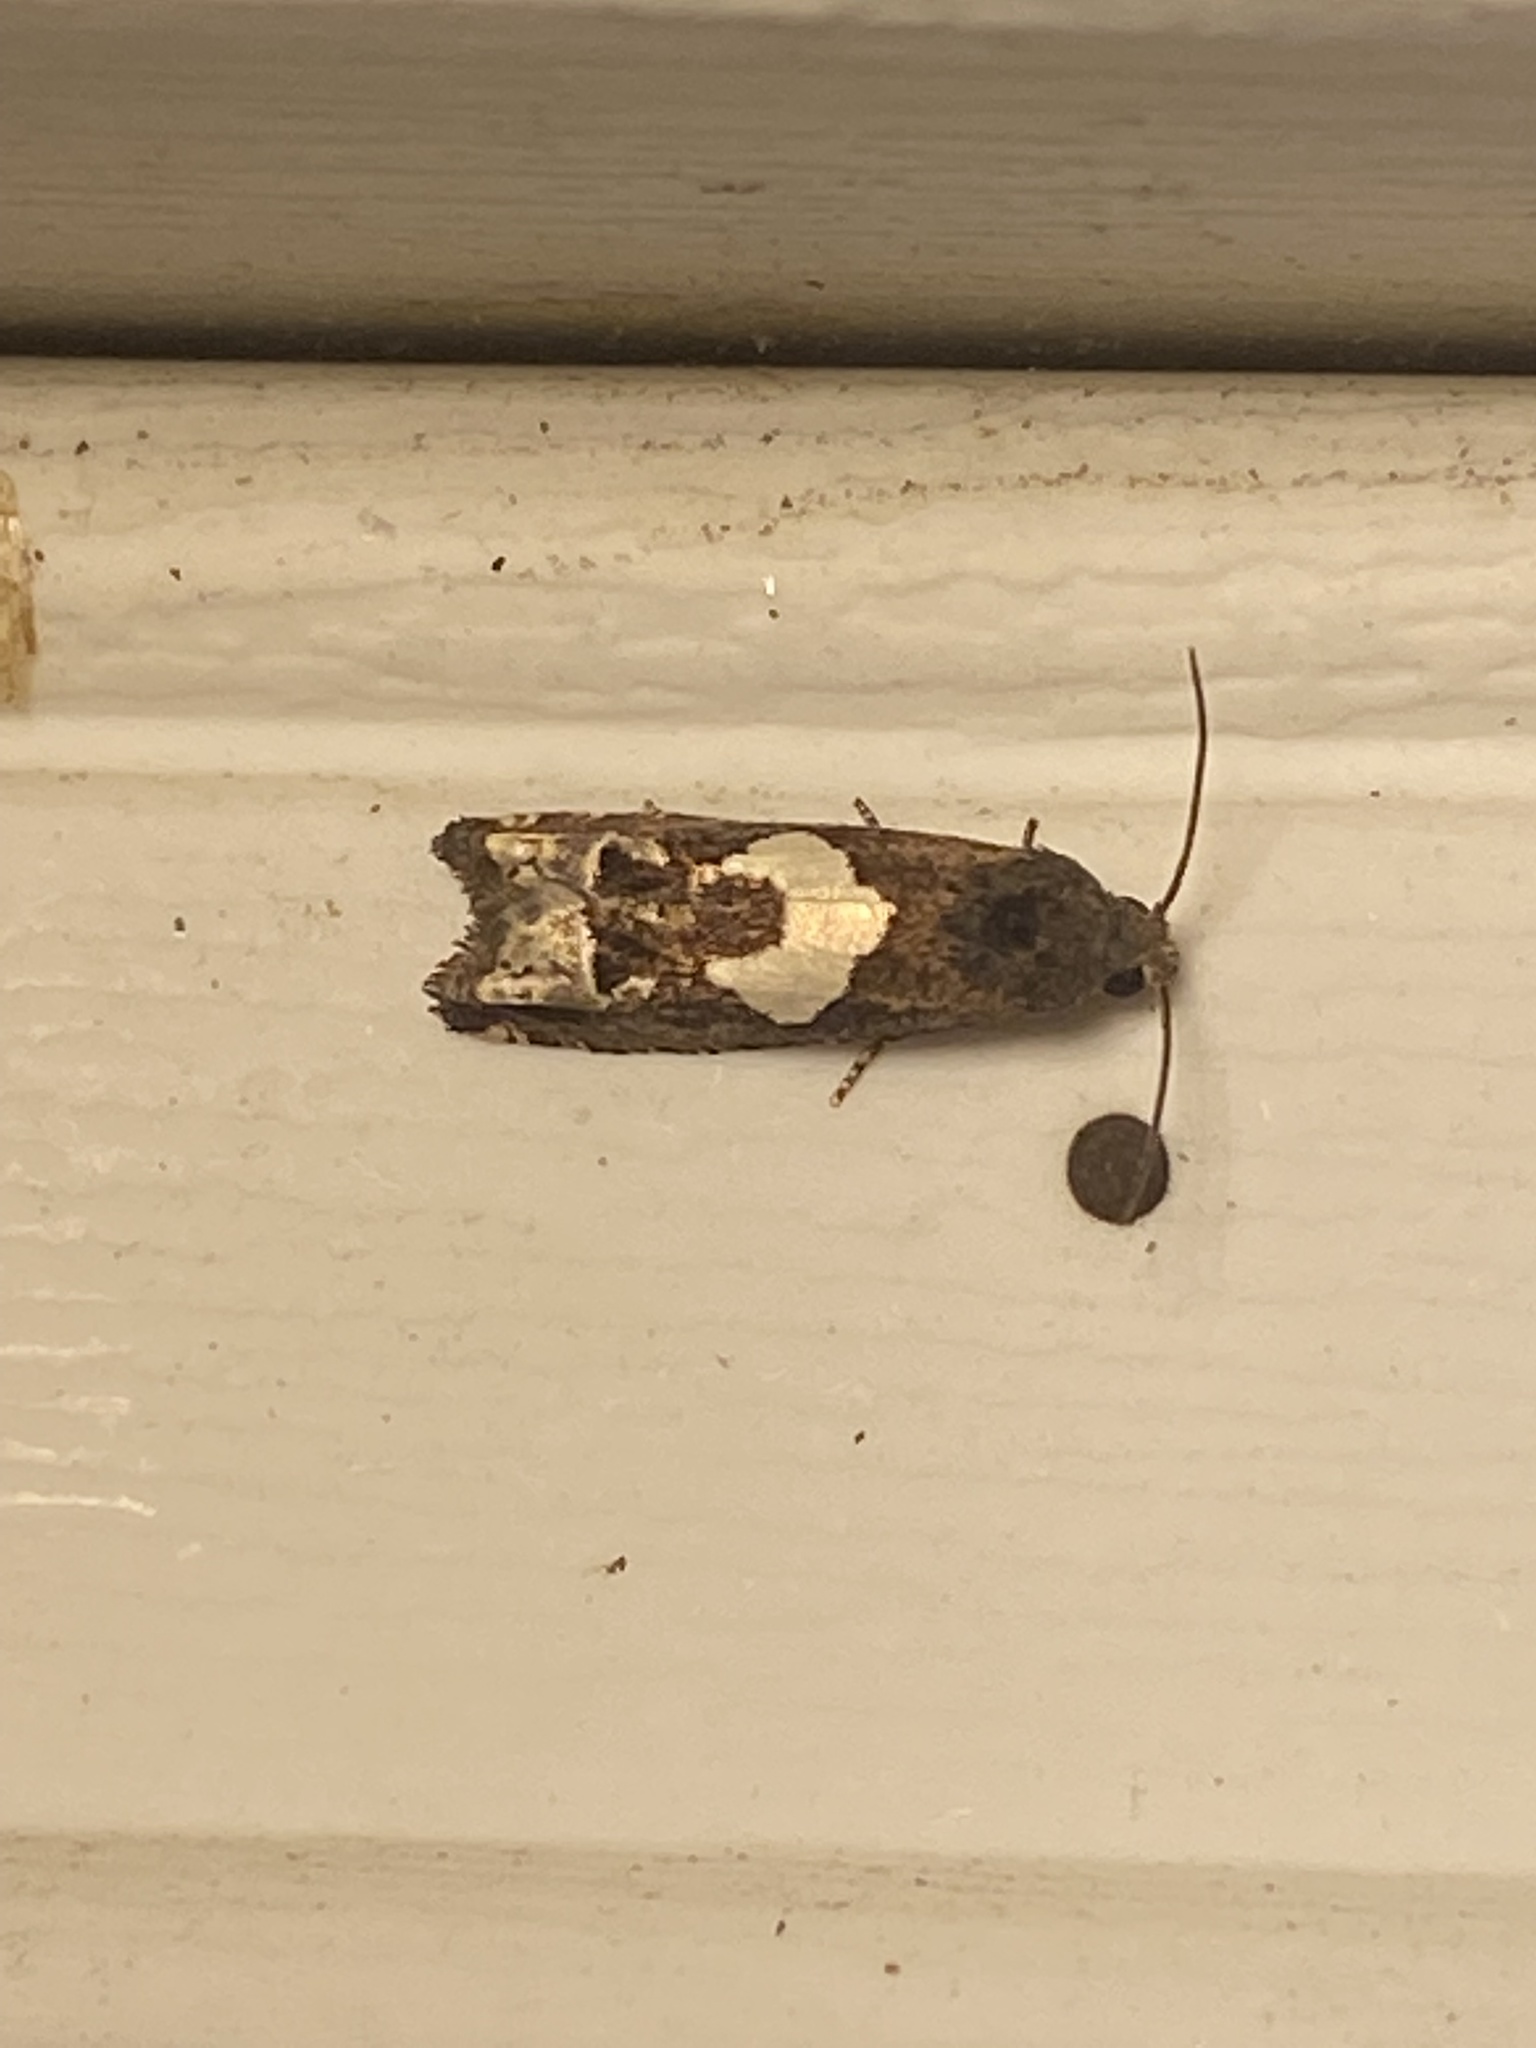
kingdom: Animalia
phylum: Arthropoda
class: Insecta
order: Lepidoptera
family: Tortricidae
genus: Epiblema
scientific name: Epiblema otiosana
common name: Bidens borer moth
